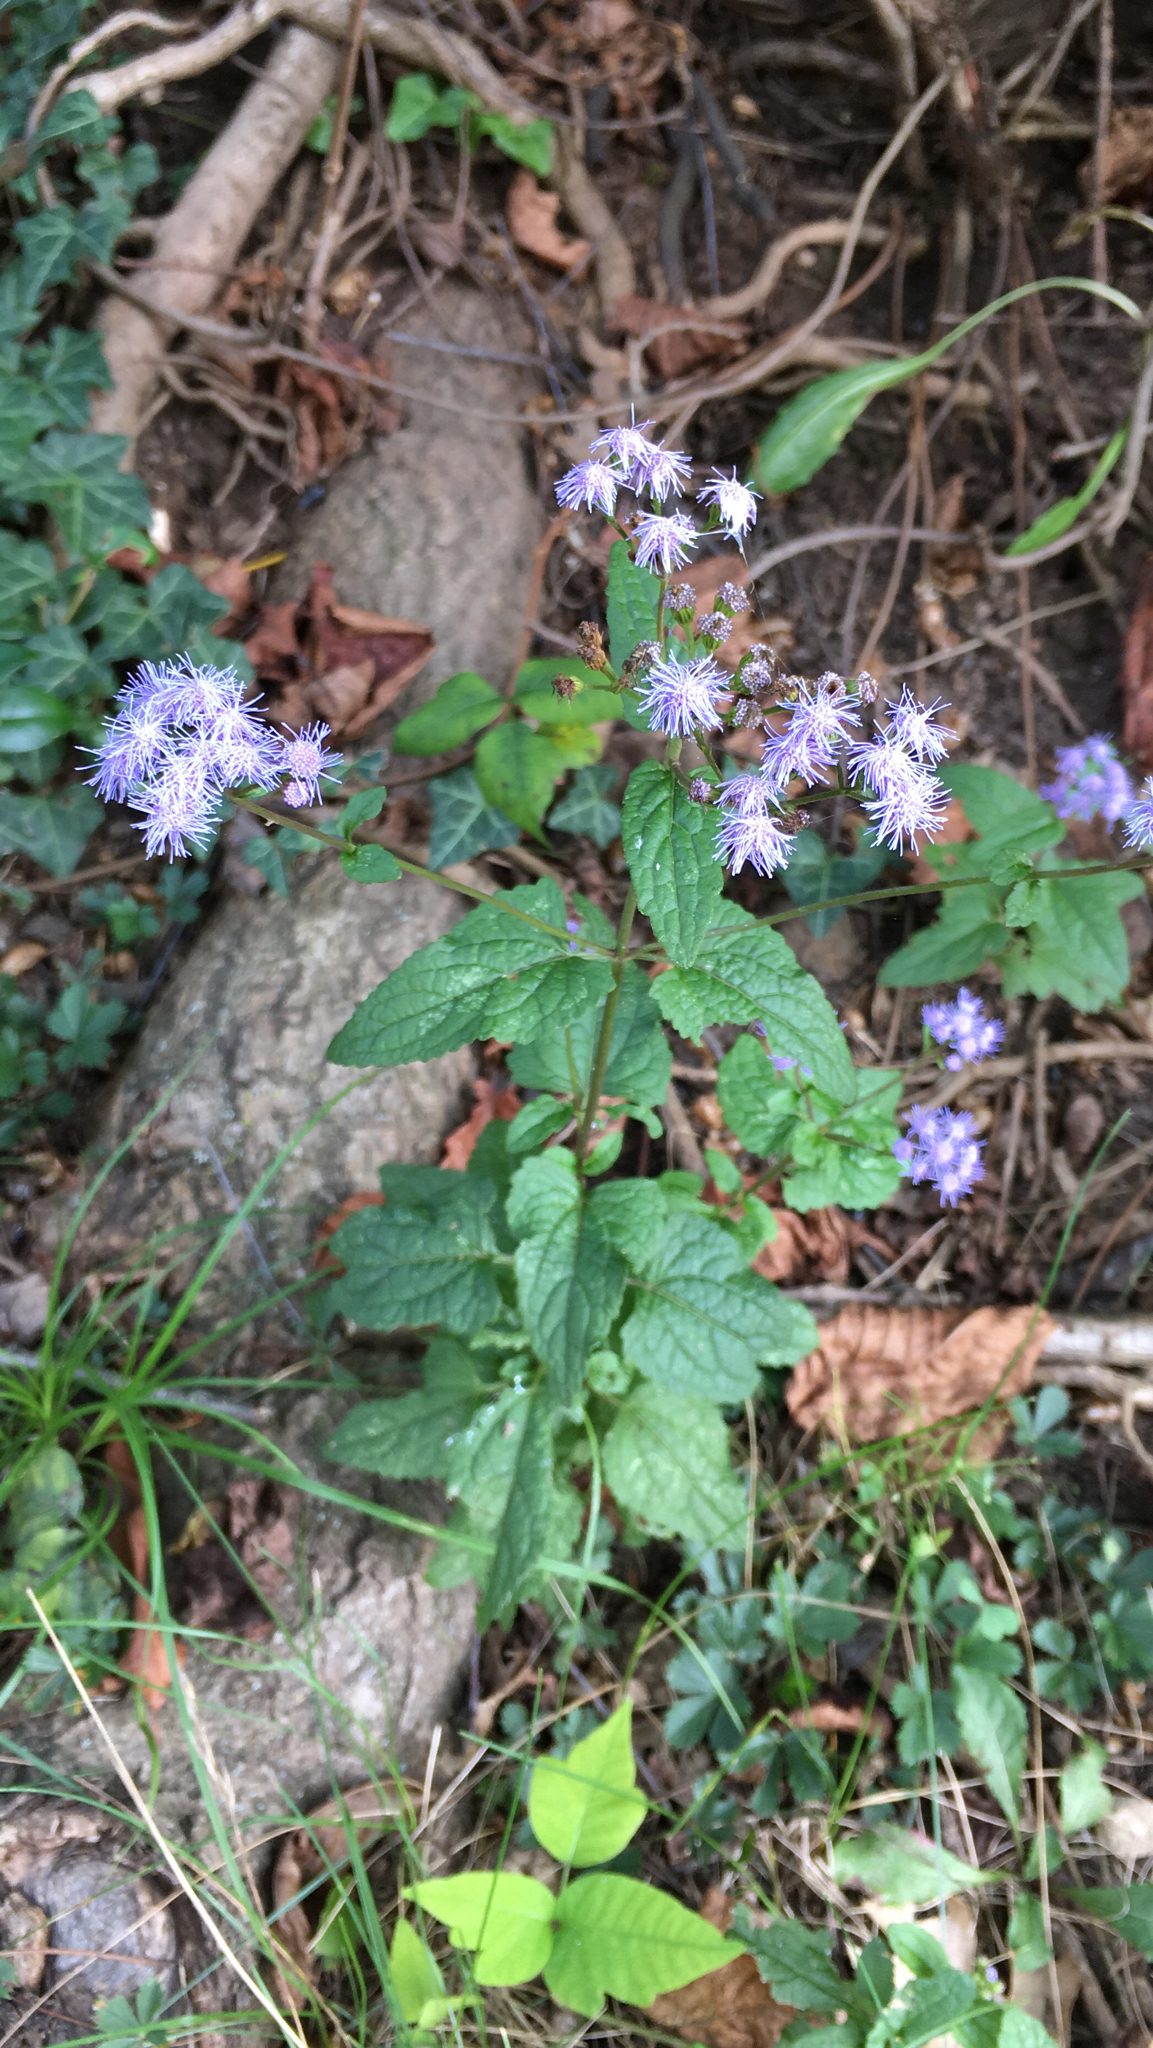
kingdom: Plantae
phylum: Tracheophyta
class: Magnoliopsida
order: Asterales
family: Asteraceae
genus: Conoclinium
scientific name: Conoclinium coelestinum
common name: Blue mistflower
